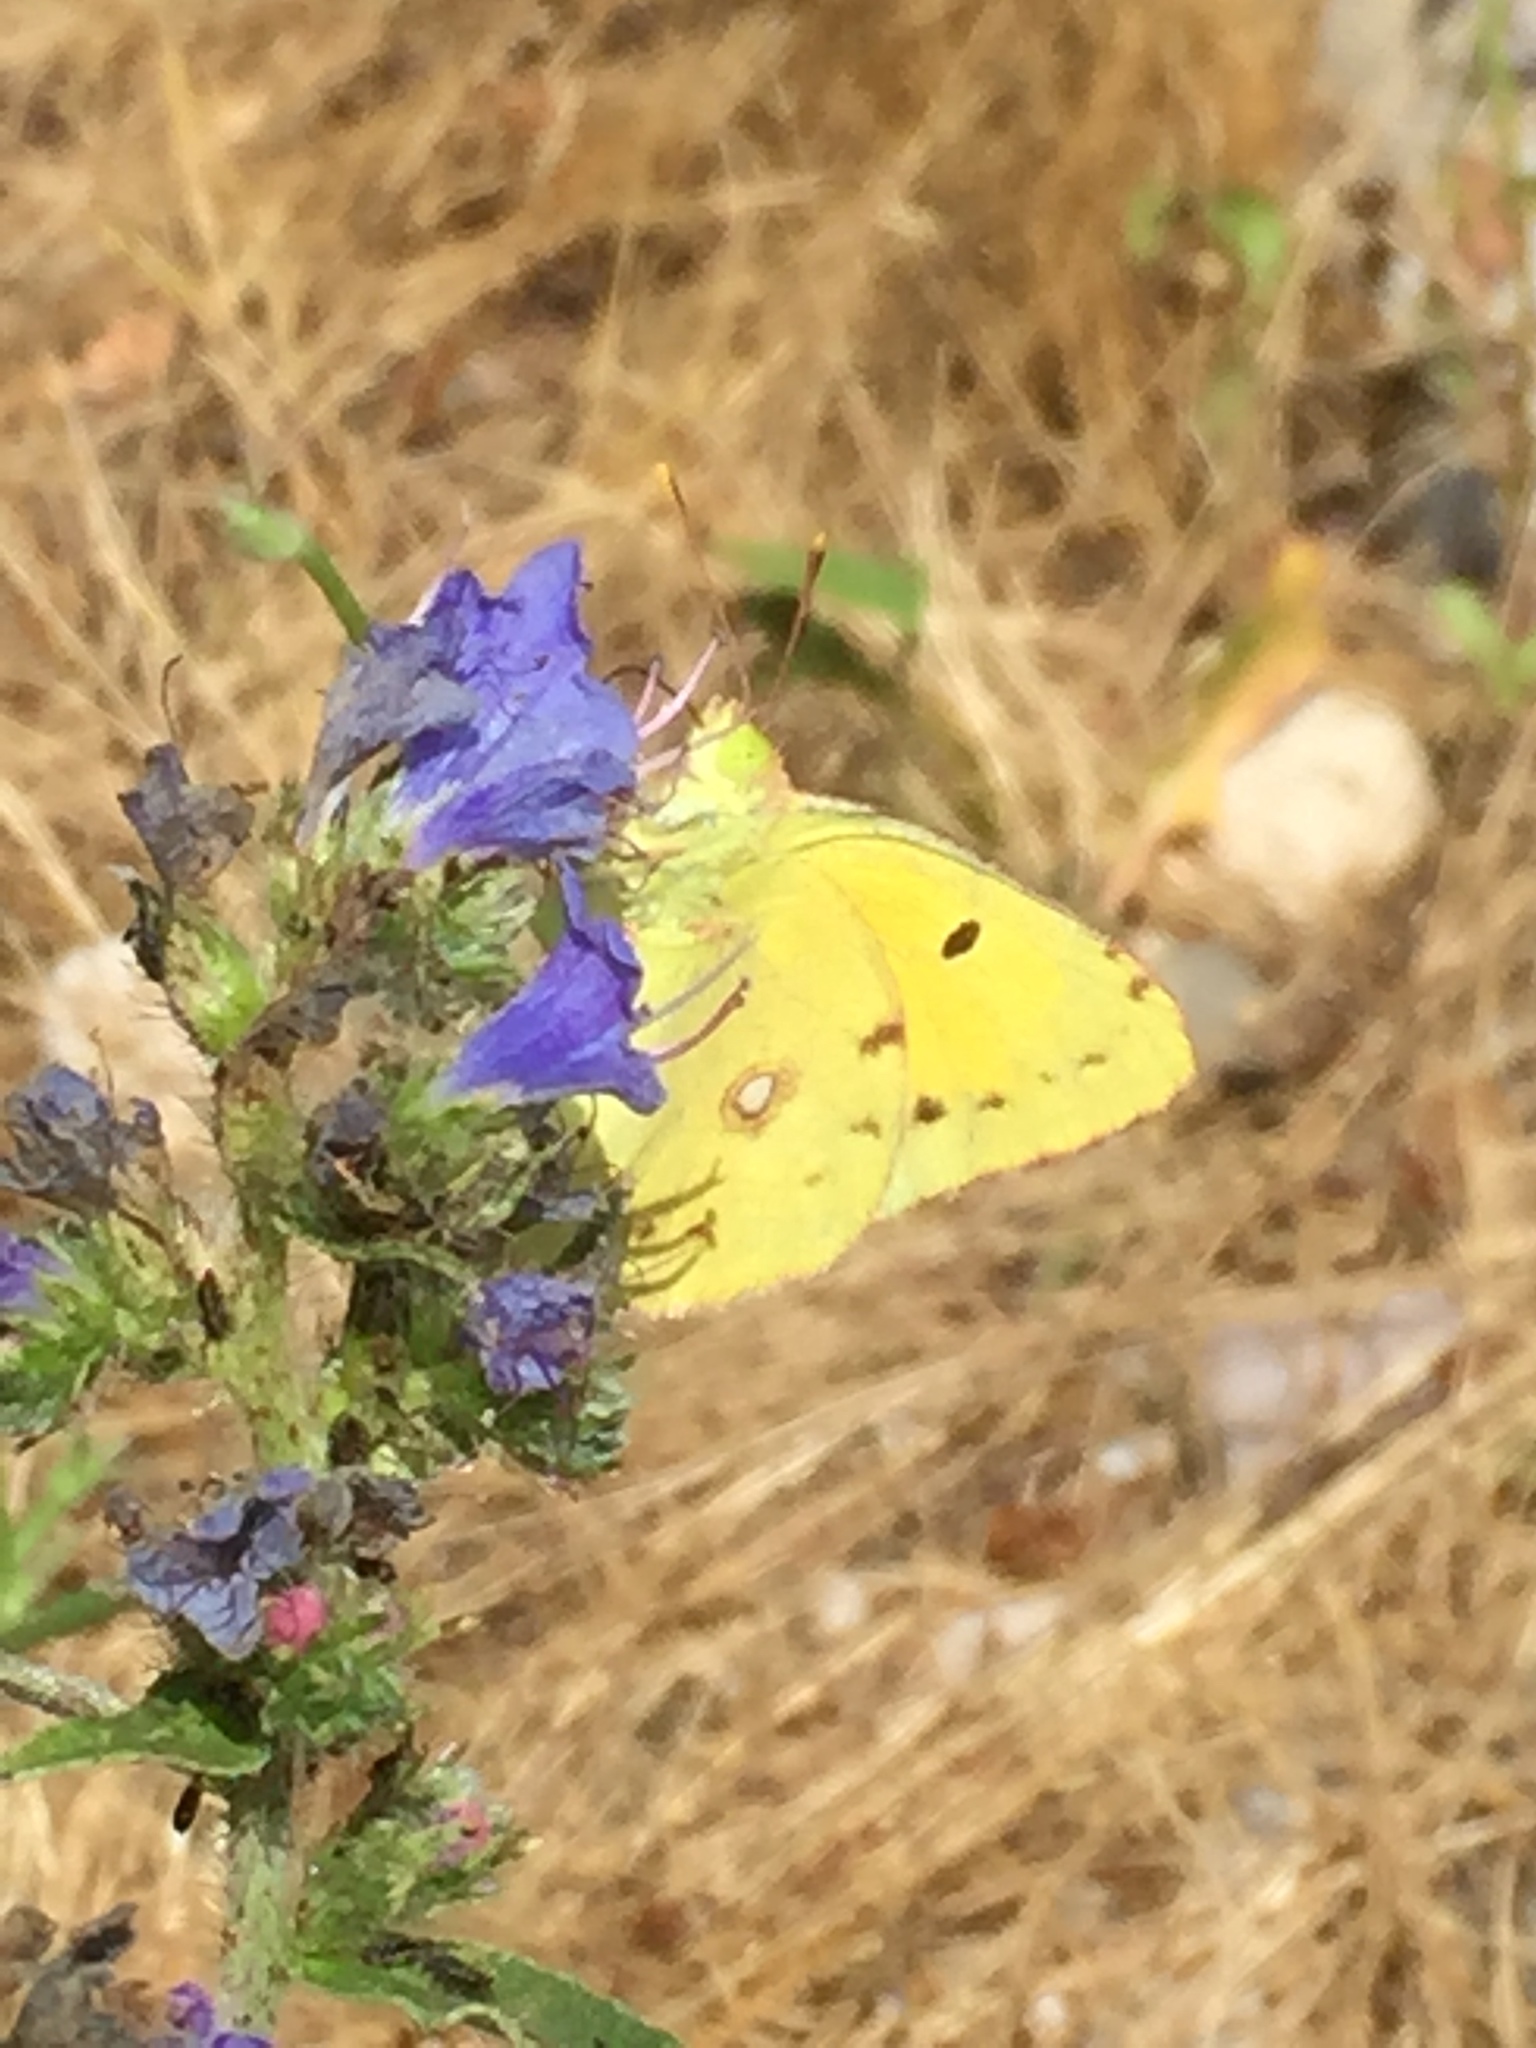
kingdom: Animalia
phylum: Arthropoda
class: Insecta
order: Lepidoptera
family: Pieridae
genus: Colias
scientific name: Colias croceus
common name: Clouded yellow
